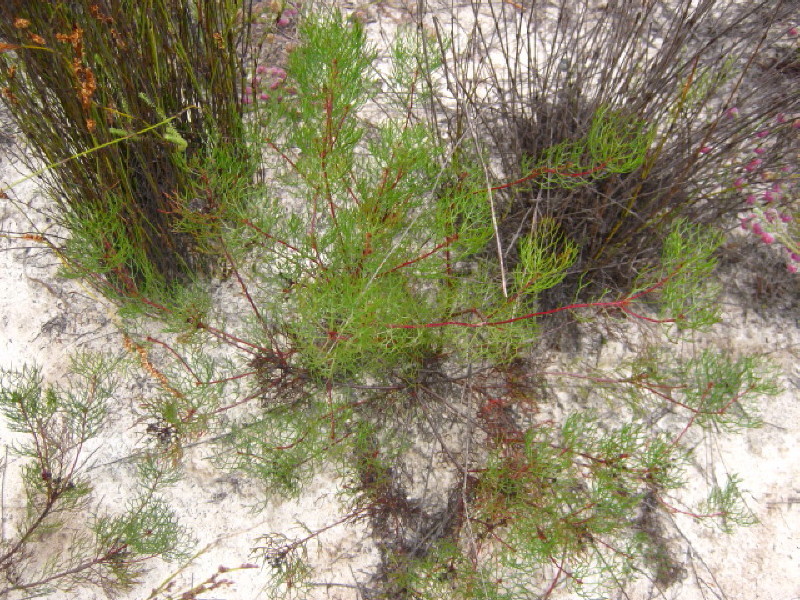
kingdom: Plantae
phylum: Tracheophyta
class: Magnoliopsida
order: Proteales
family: Proteaceae
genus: Serruria
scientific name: Serruria fasciflora
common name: Common pin spiderhead
